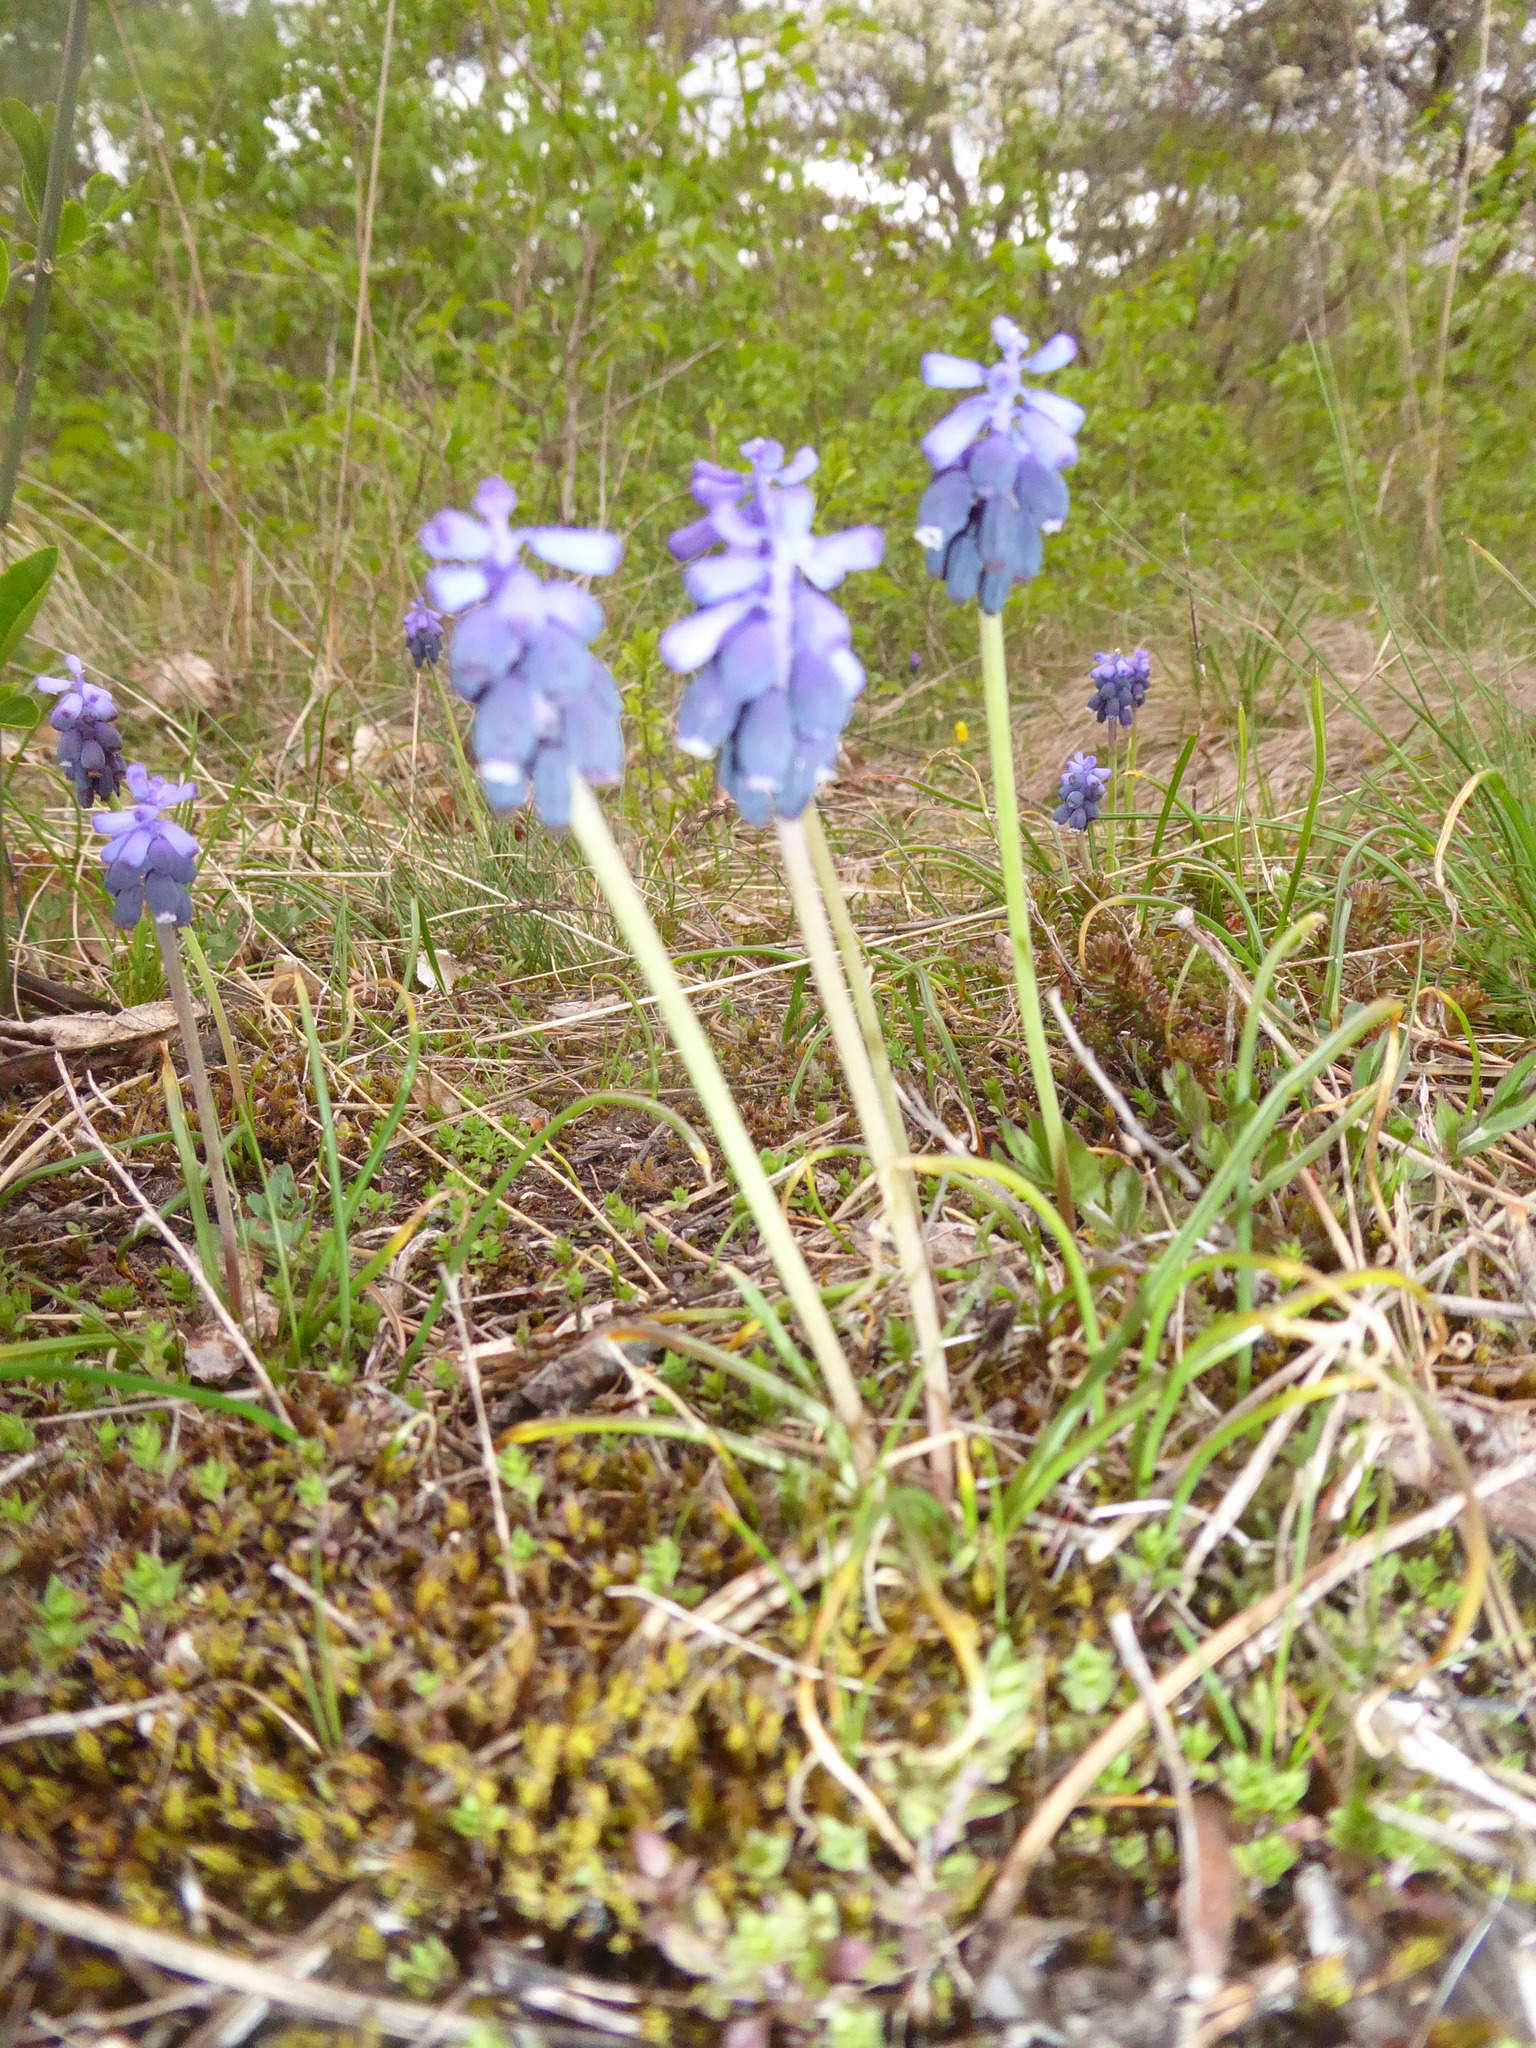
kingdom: Plantae
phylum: Tracheophyta
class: Liliopsida
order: Asparagales
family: Asparagaceae
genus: Muscari
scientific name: Muscari neglectum
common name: Grape-hyacinth
